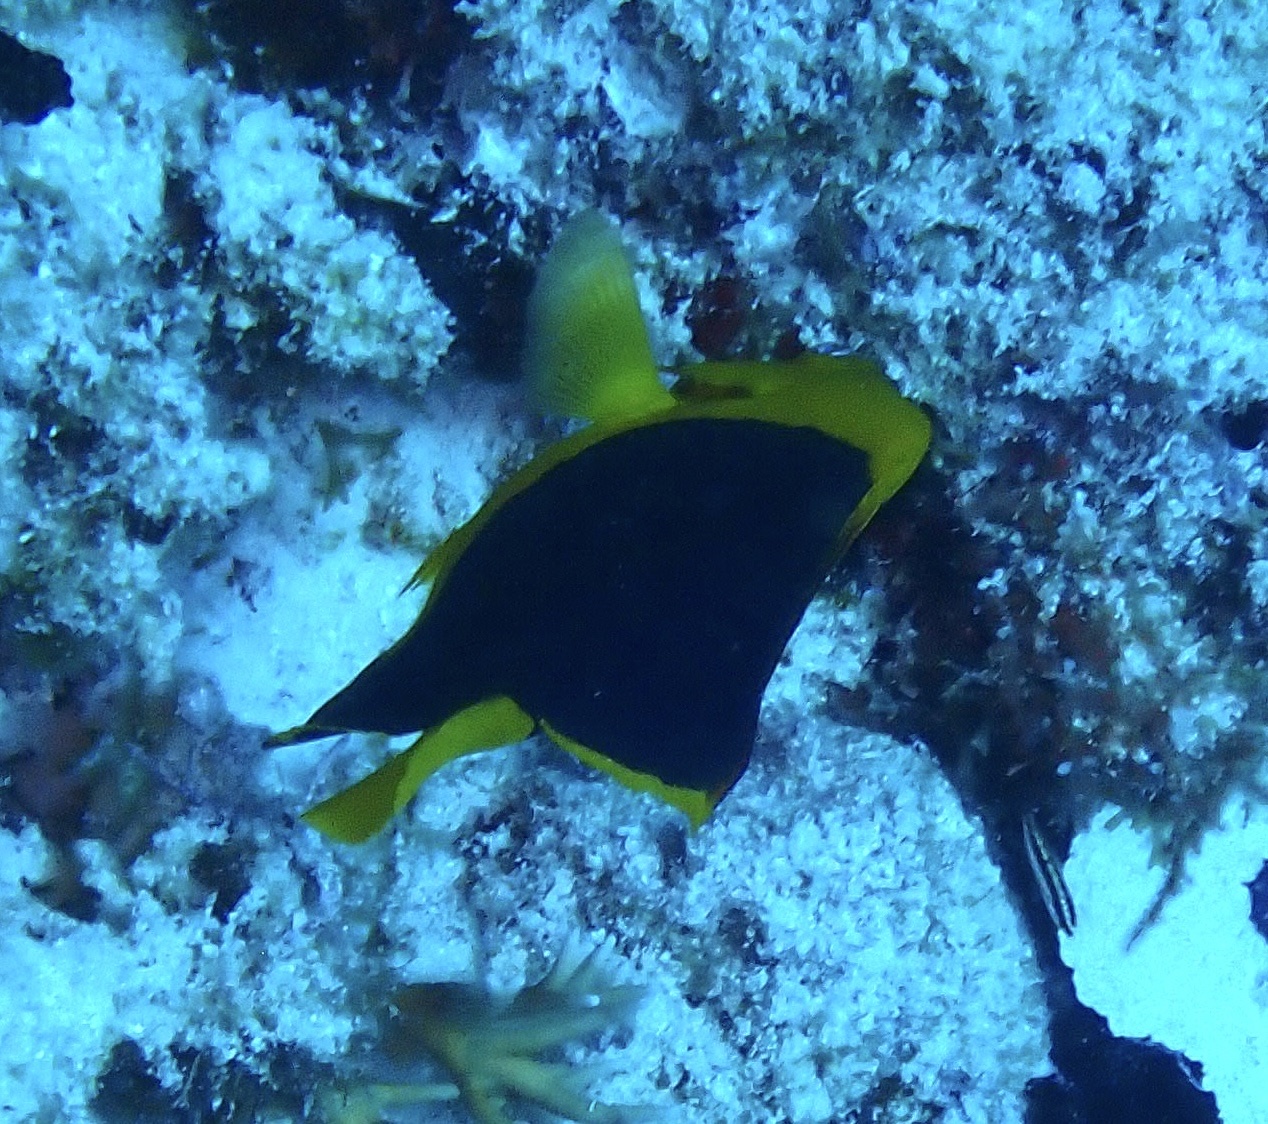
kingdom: Animalia
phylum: Chordata
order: Perciformes
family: Pomacanthidae
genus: Holacanthus
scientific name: Holacanthus tricolor
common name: Rock beauty
